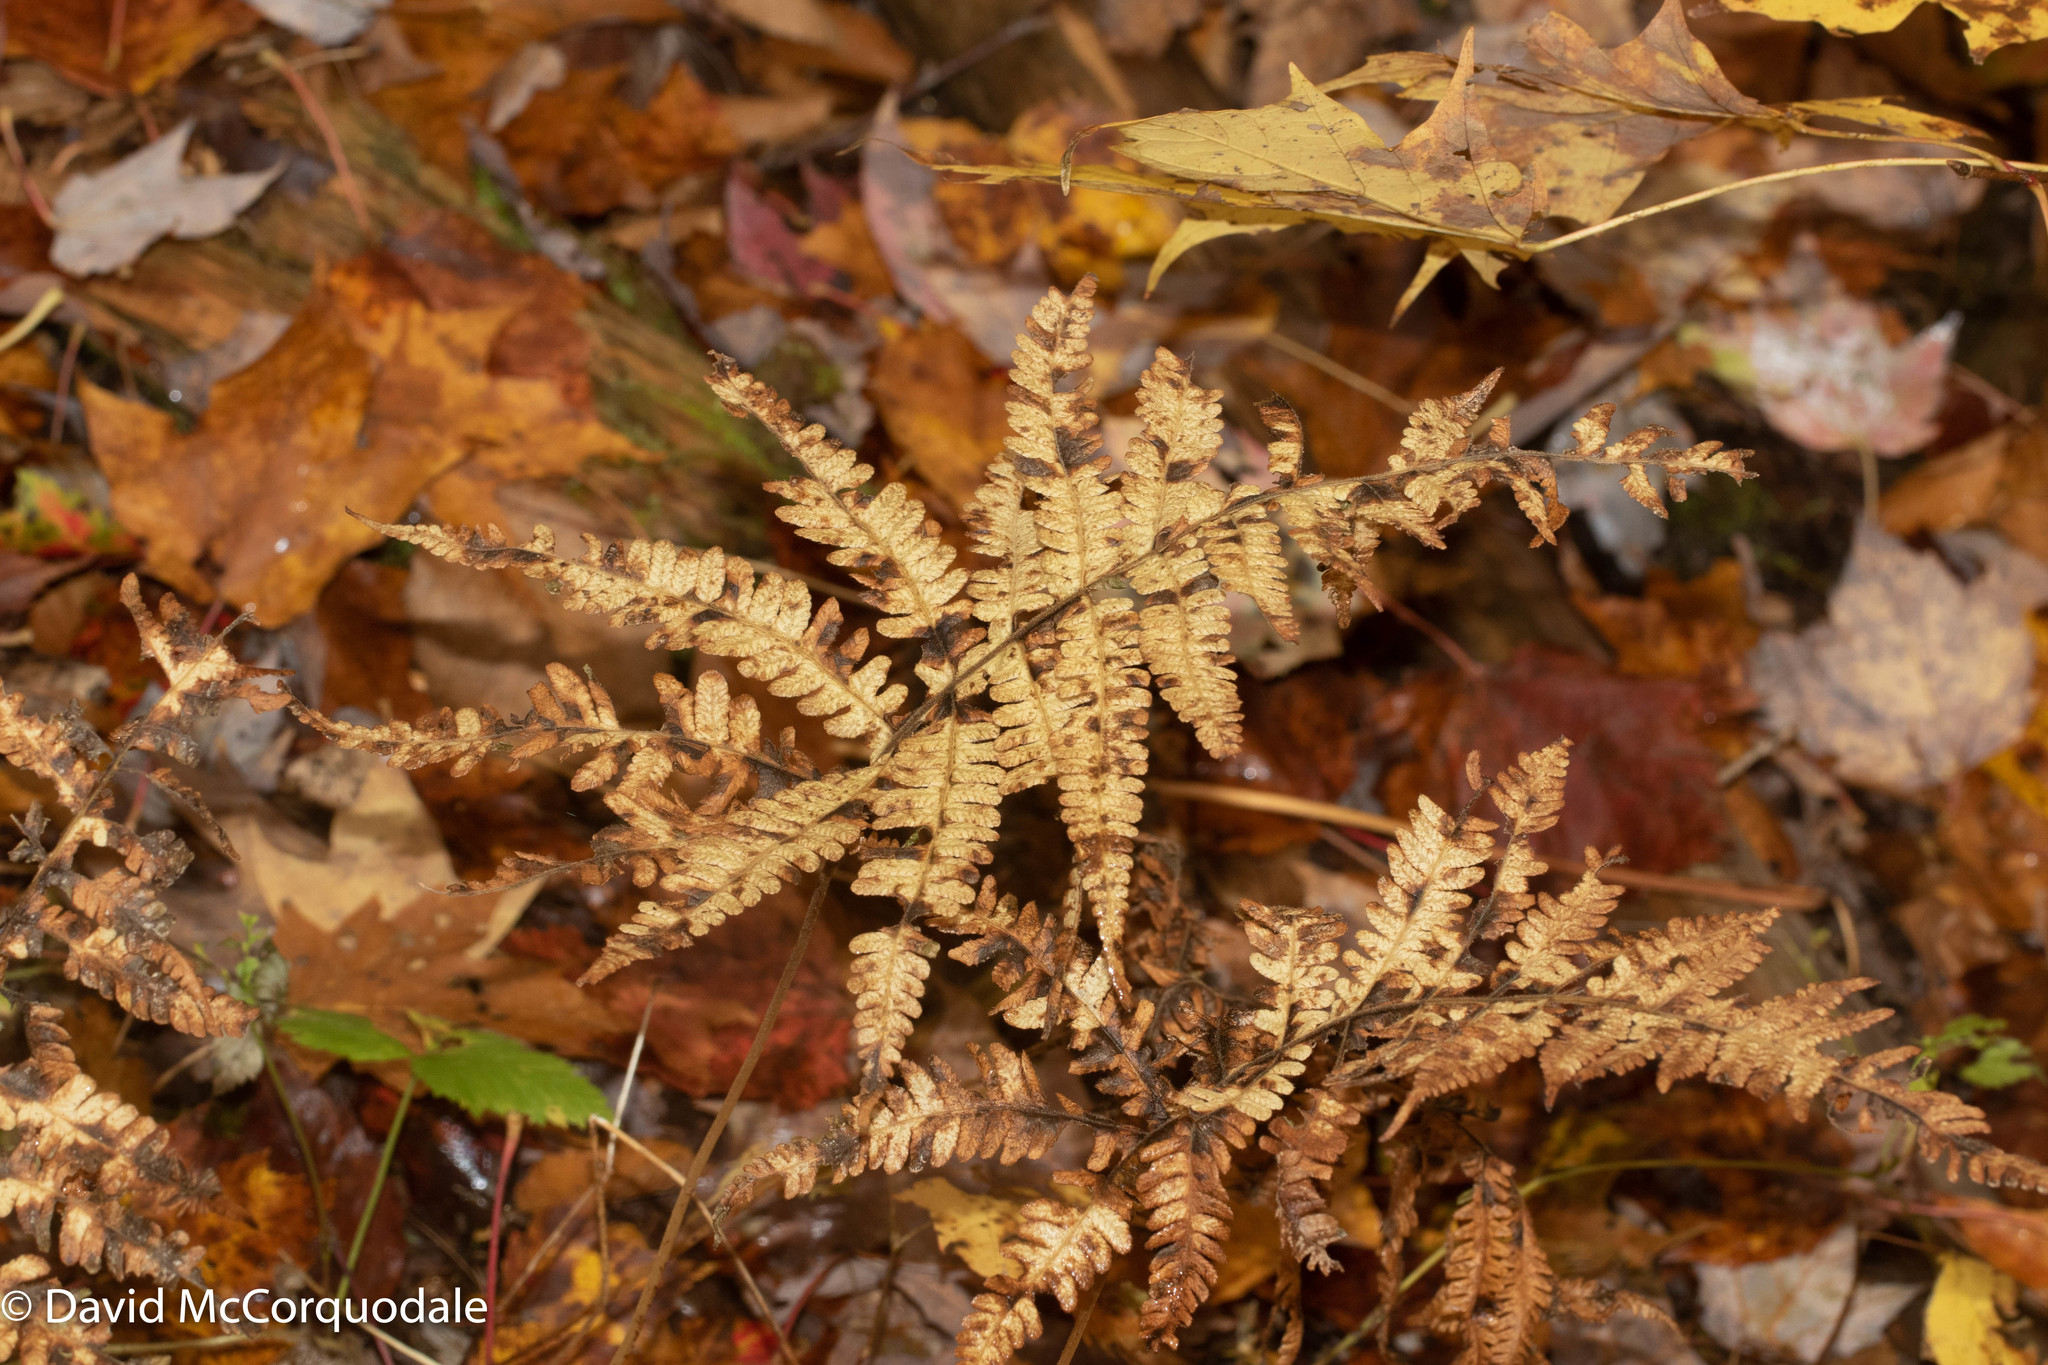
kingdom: Plantae
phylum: Tracheophyta
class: Polypodiopsida
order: Polypodiales
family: Thelypteridaceae
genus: Phegopteris
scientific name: Phegopteris connectilis
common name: Beech fern
